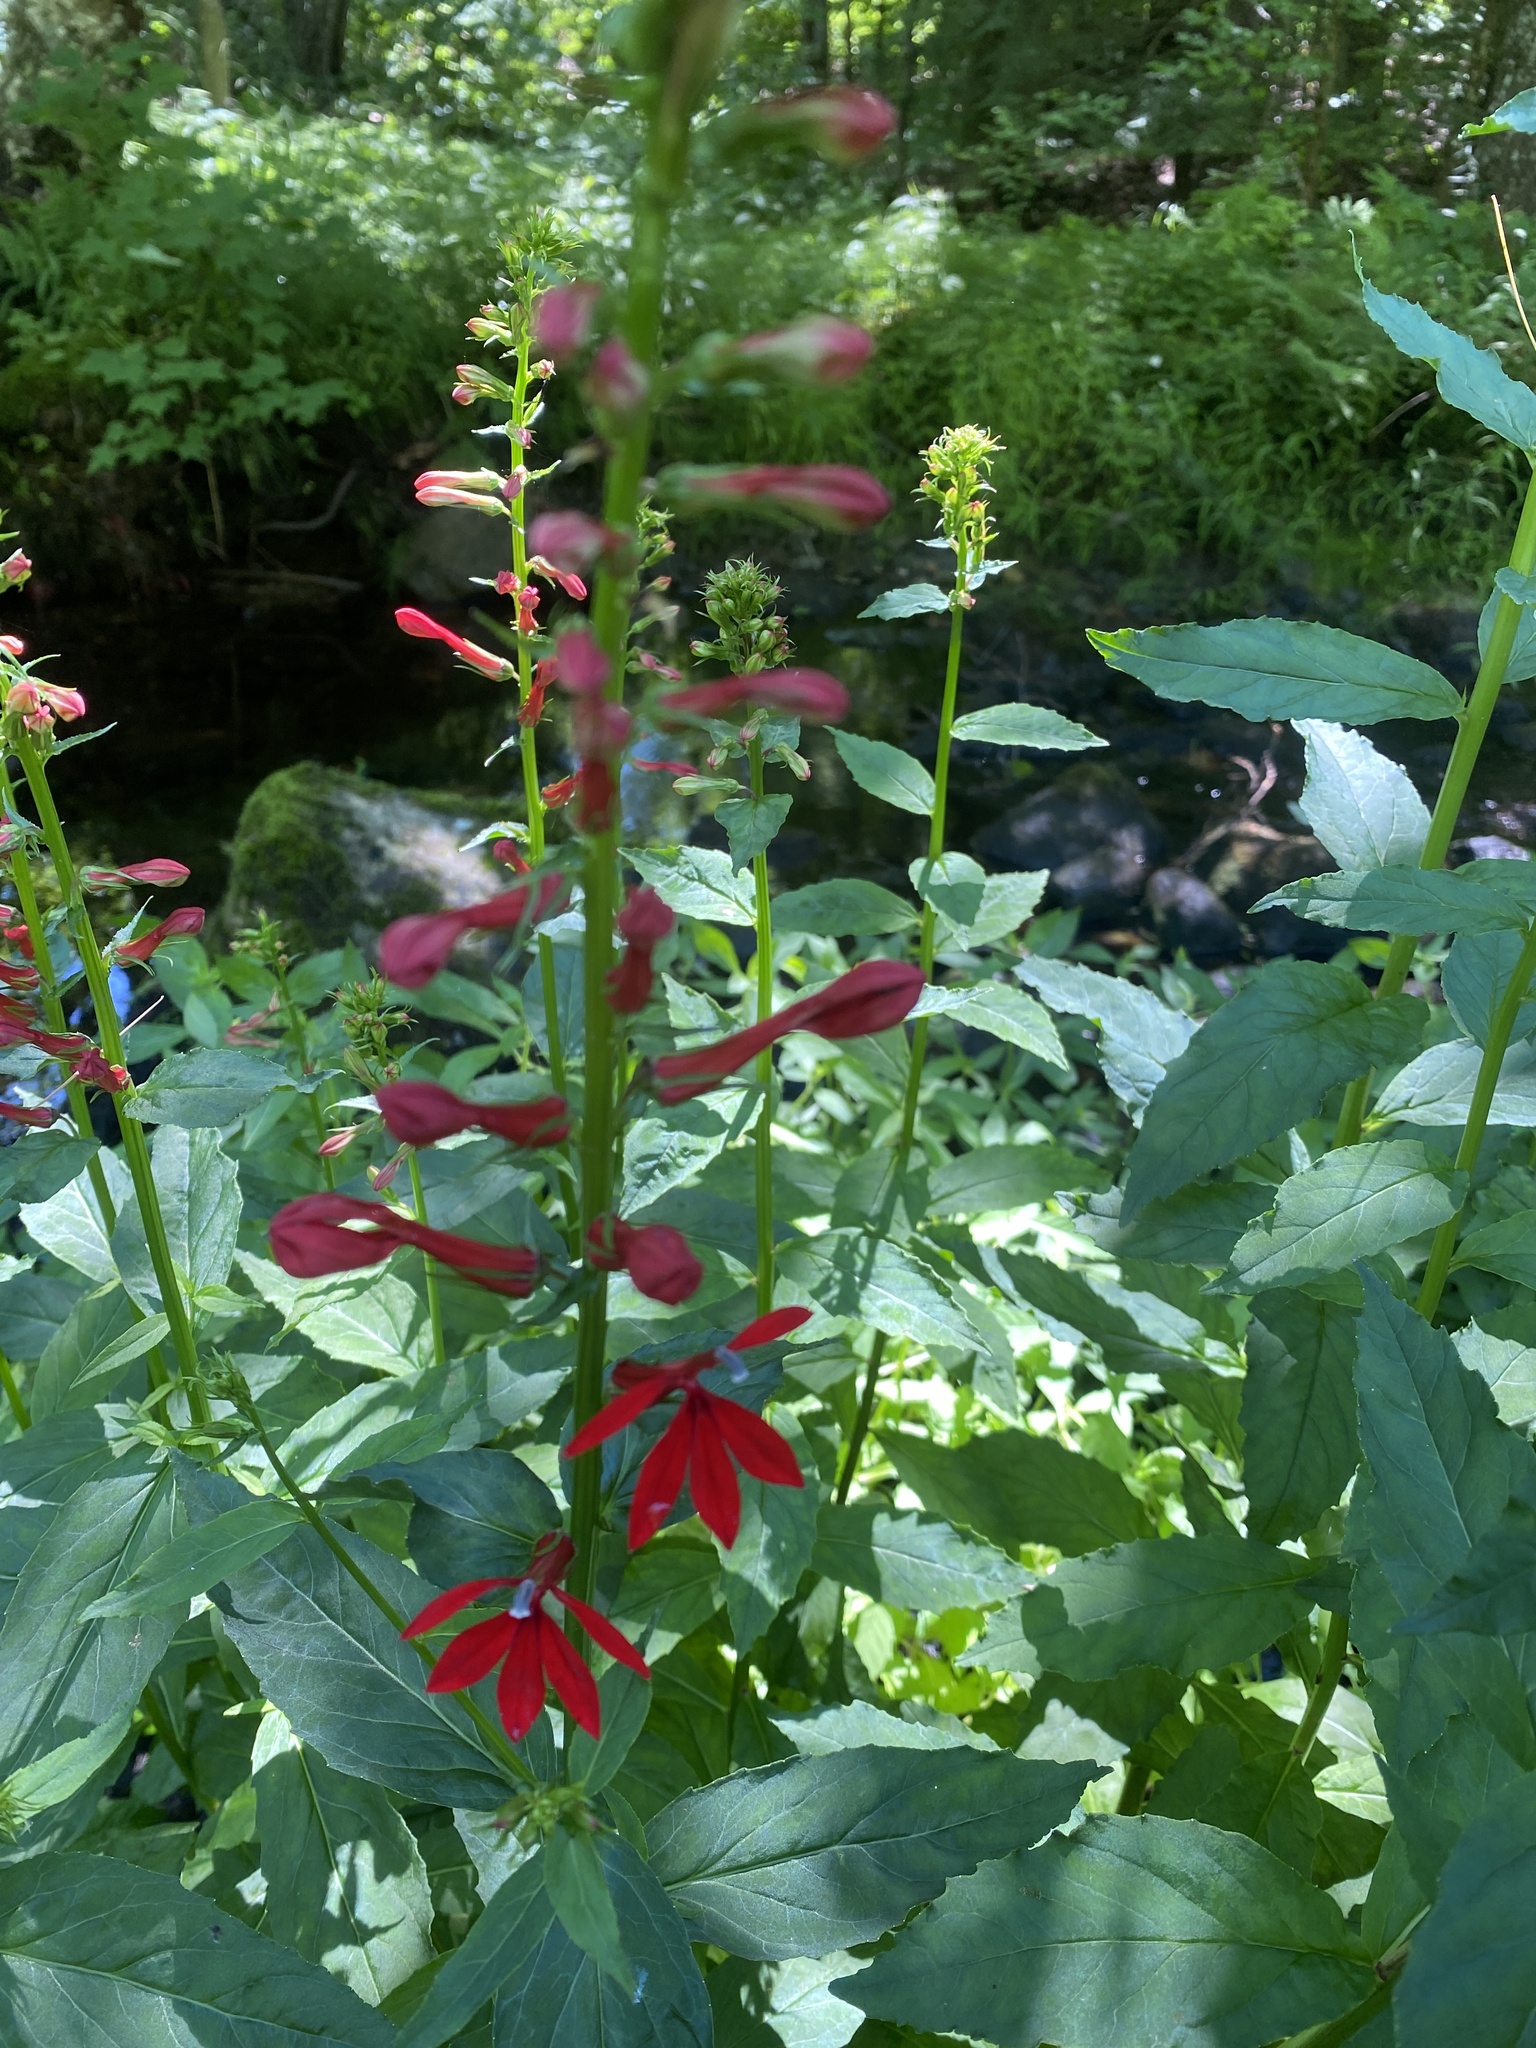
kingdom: Plantae
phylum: Tracheophyta
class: Magnoliopsida
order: Asterales
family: Campanulaceae
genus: Lobelia
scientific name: Lobelia cardinalis
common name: Cardinal flower
